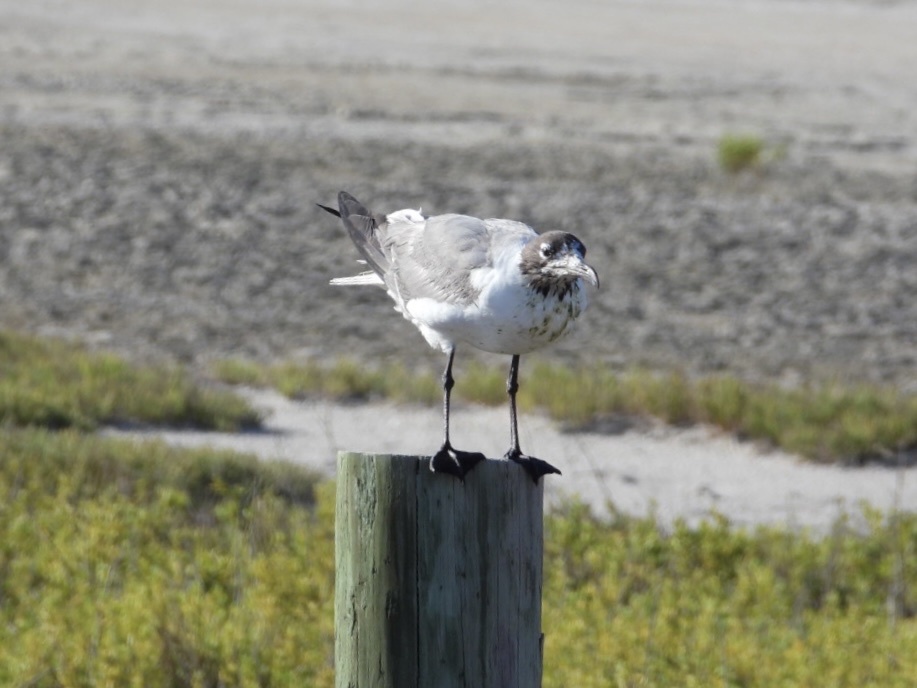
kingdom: Animalia
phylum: Chordata
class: Aves
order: Charadriiformes
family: Laridae
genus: Leucophaeus
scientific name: Leucophaeus atricilla
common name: Laughing gull
